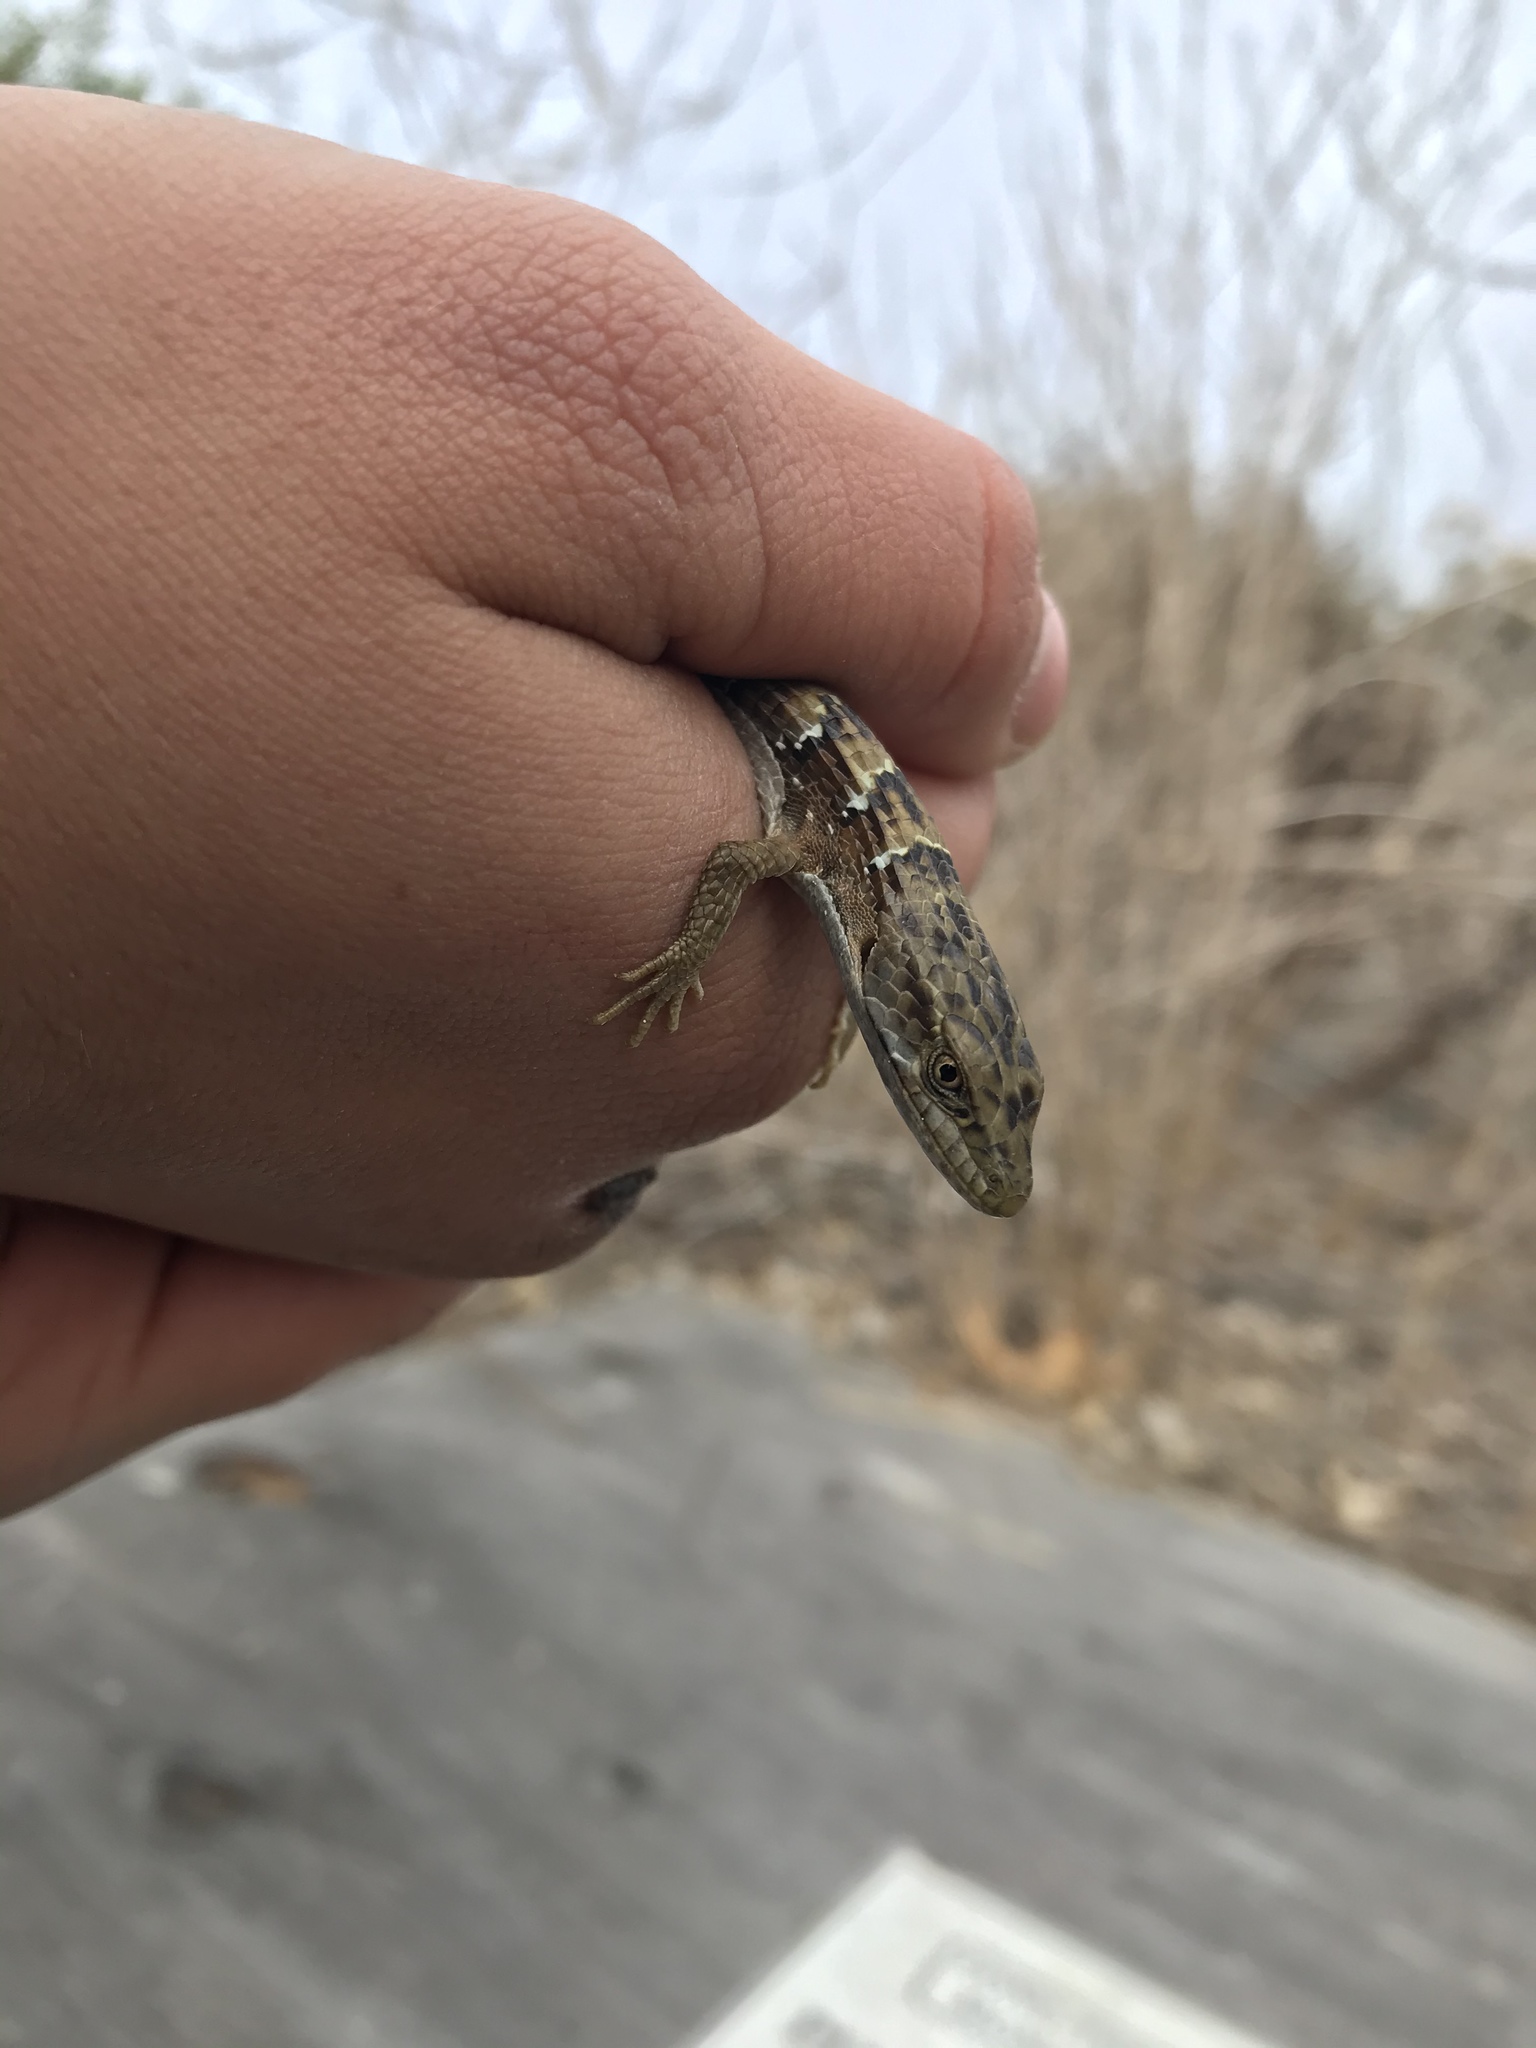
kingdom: Animalia
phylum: Chordata
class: Squamata
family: Anguidae
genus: Elgaria
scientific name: Elgaria multicarinata
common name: Southern alligator lizard
